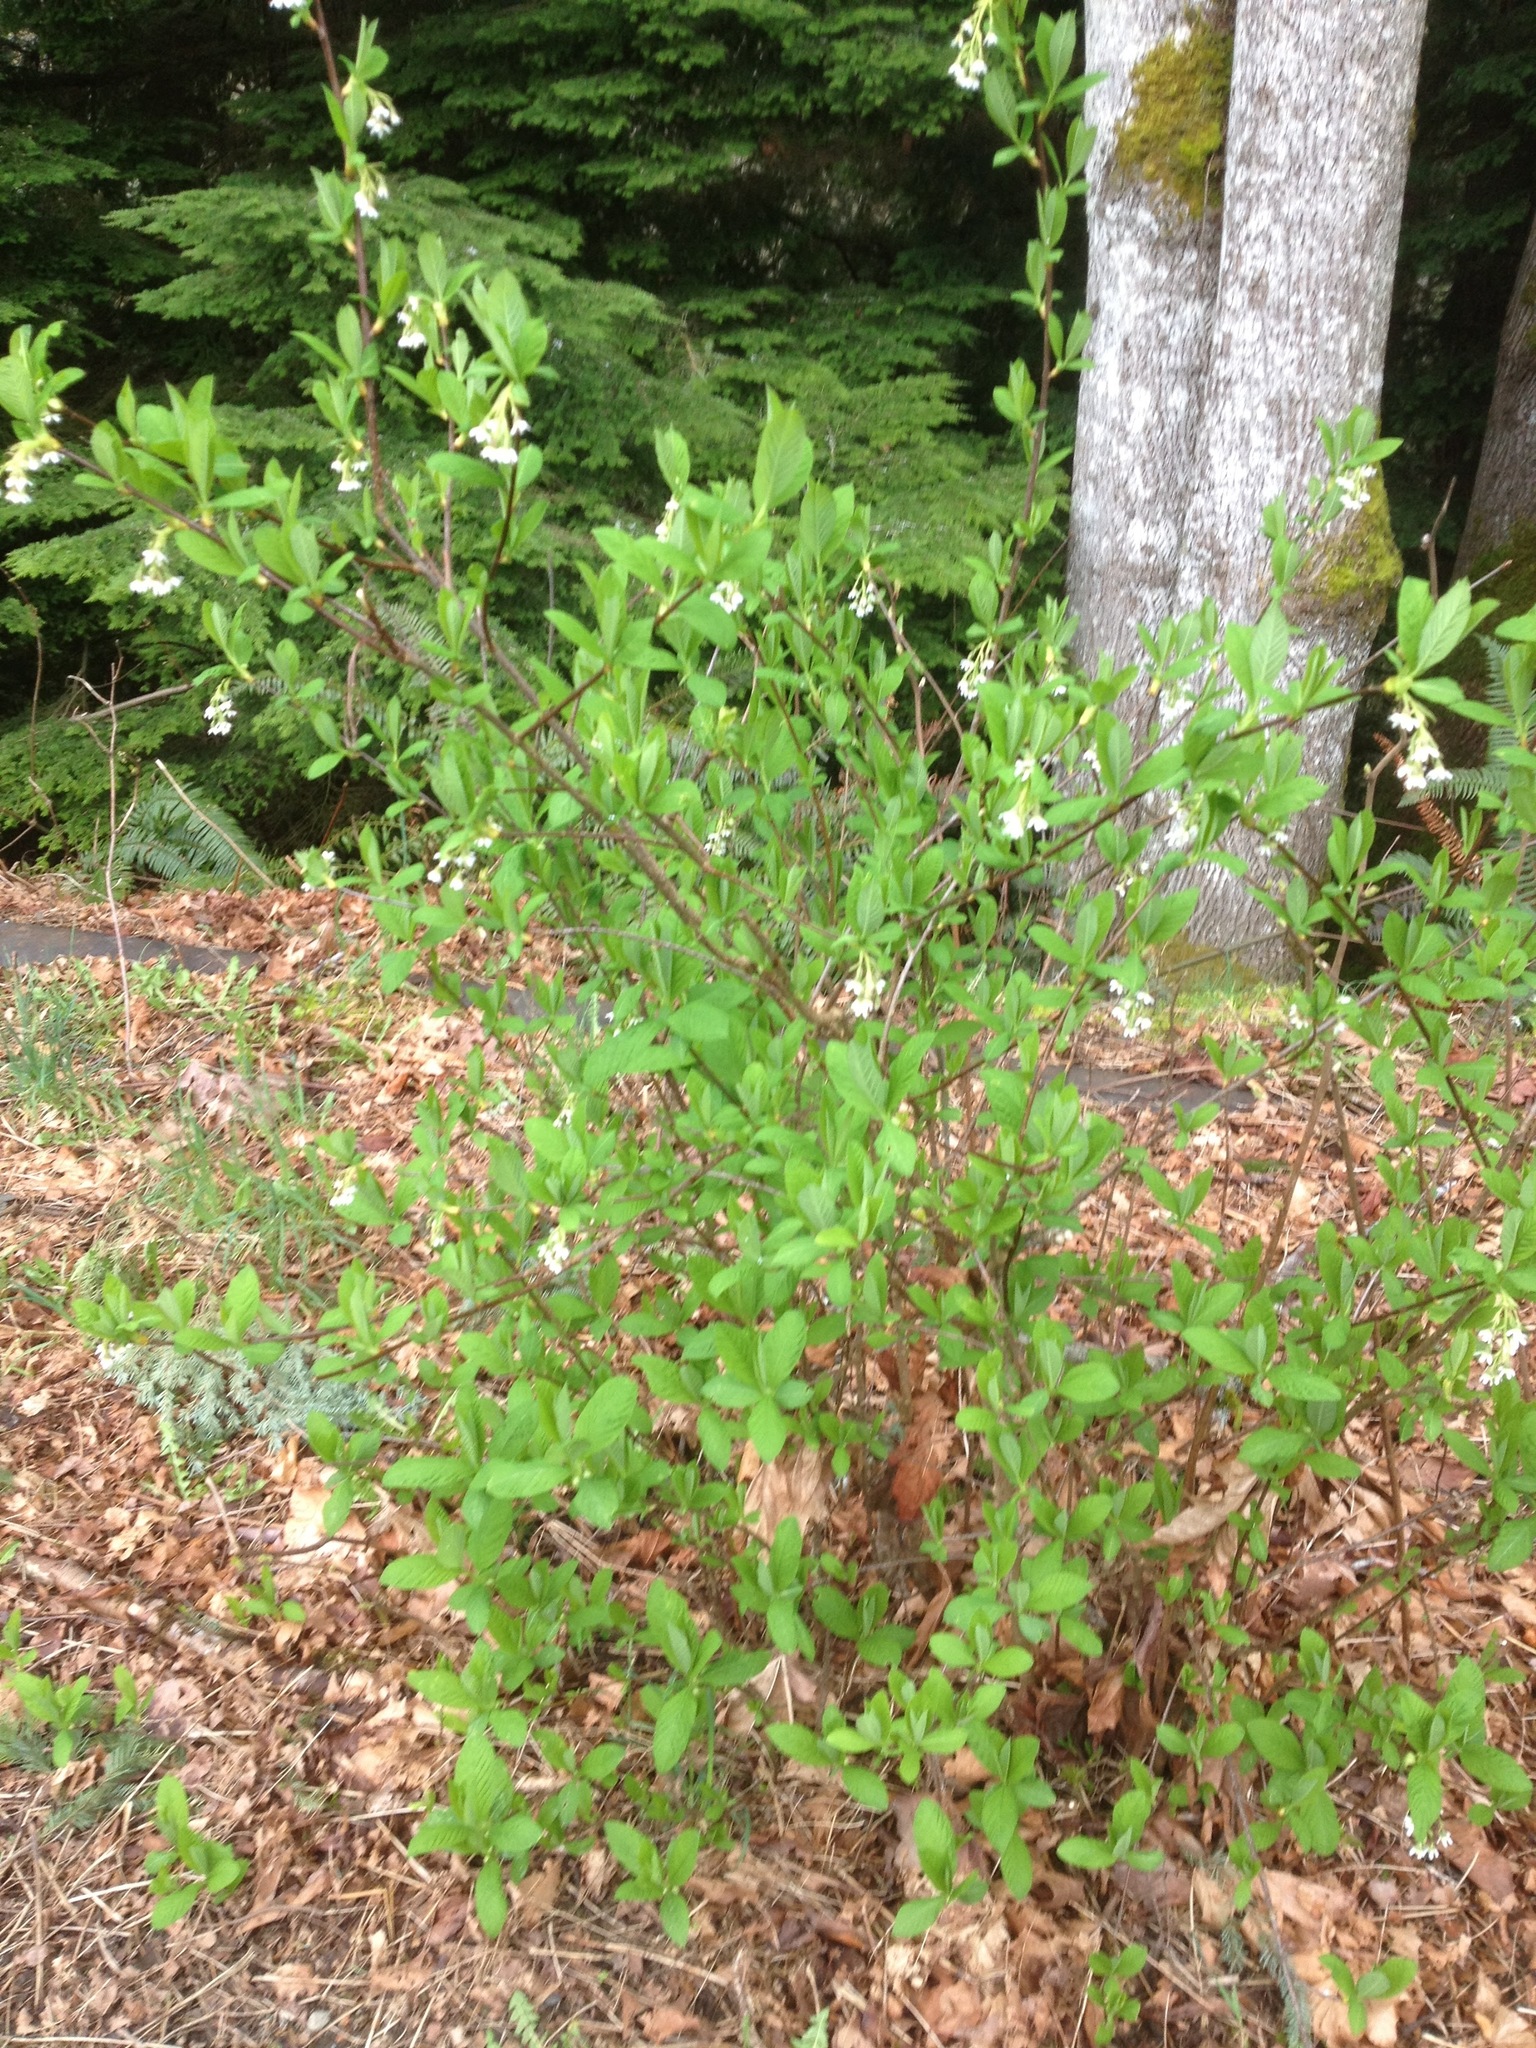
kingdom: Plantae
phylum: Tracheophyta
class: Magnoliopsida
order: Rosales
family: Rosaceae
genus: Oemleria
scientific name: Oemleria cerasiformis
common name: Osoberry
